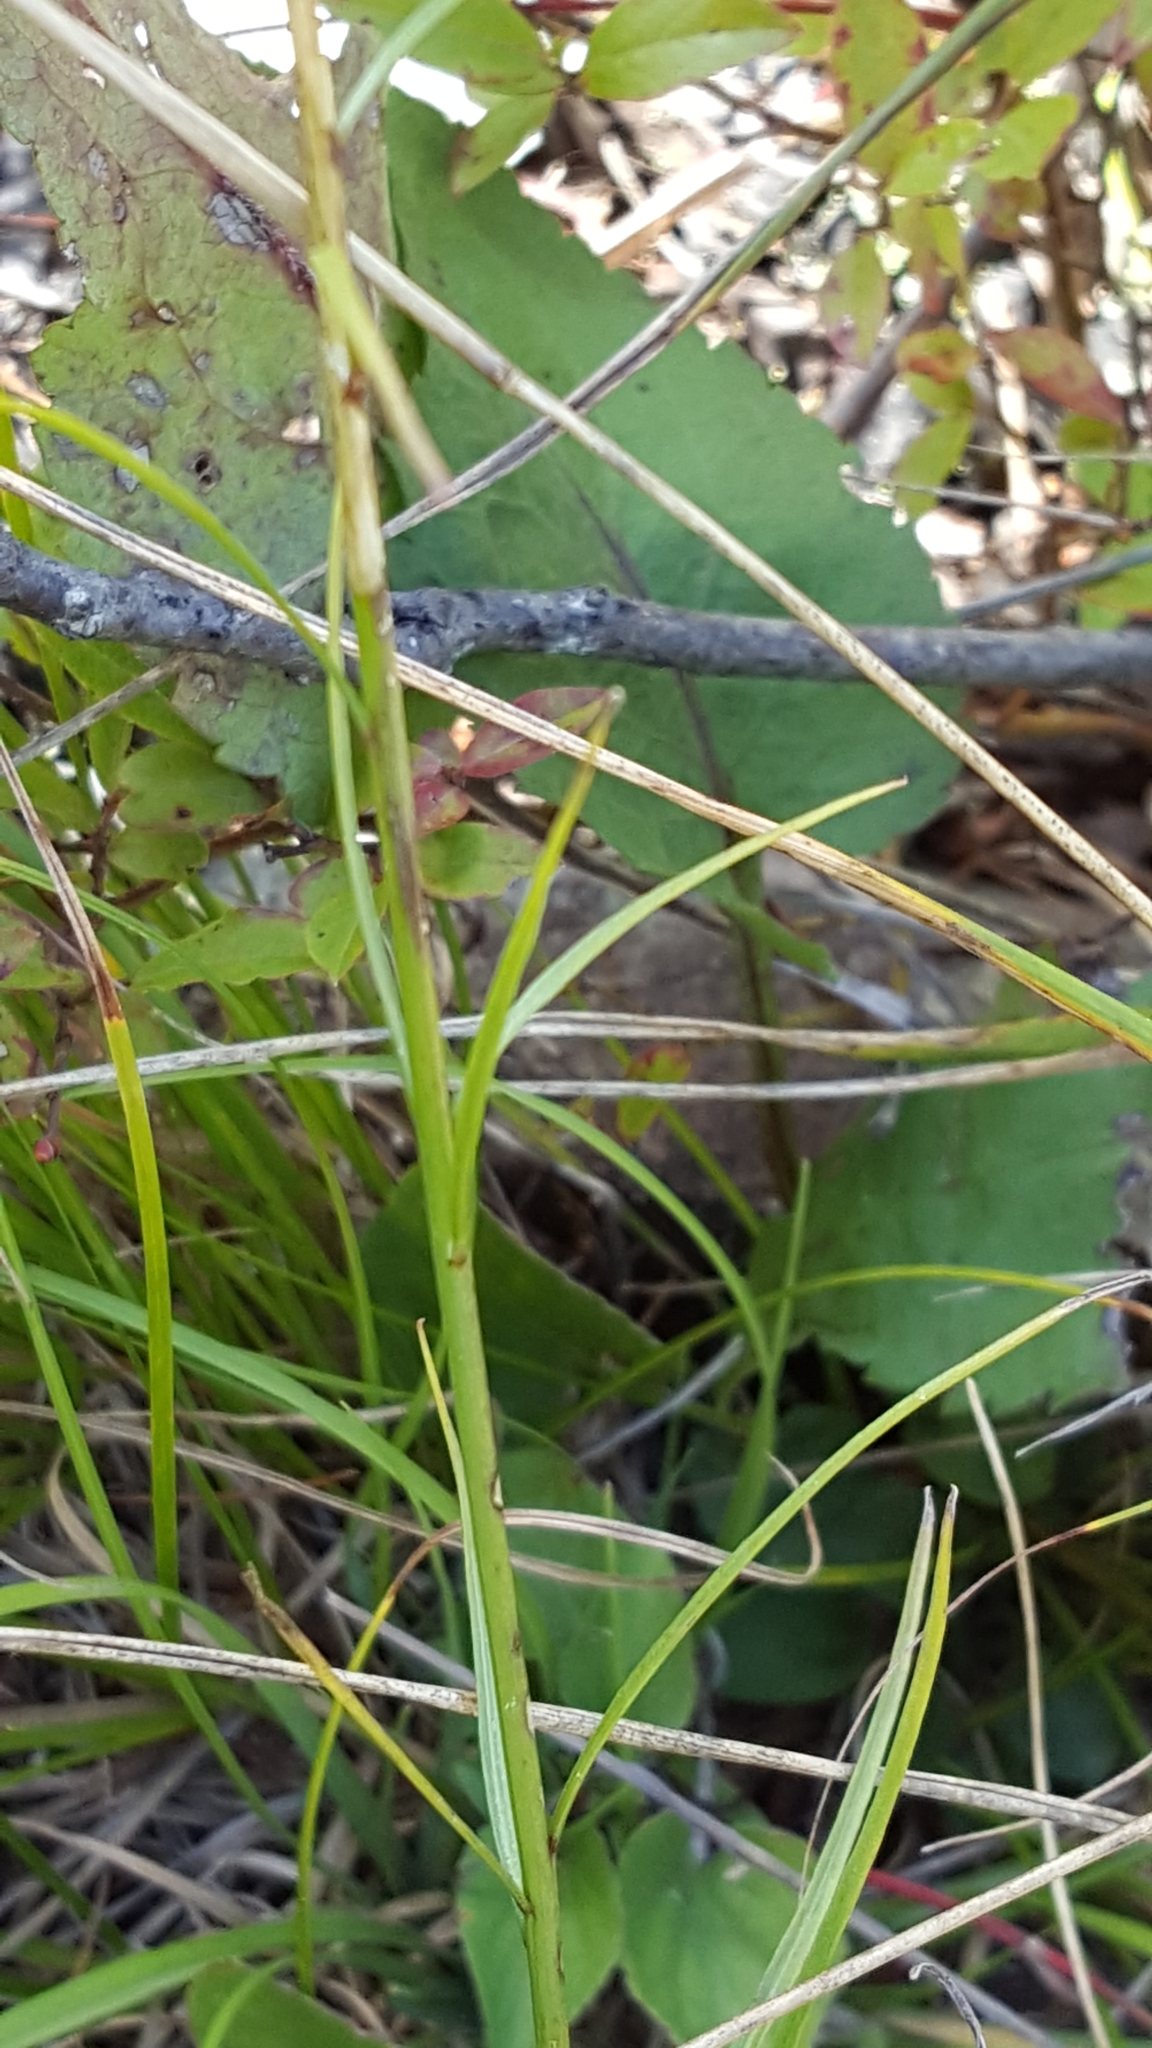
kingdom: Plantae
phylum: Tracheophyta
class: Magnoliopsida
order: Asterales
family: Campanulaceae
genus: Campanula
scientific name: Campanula intercedens
